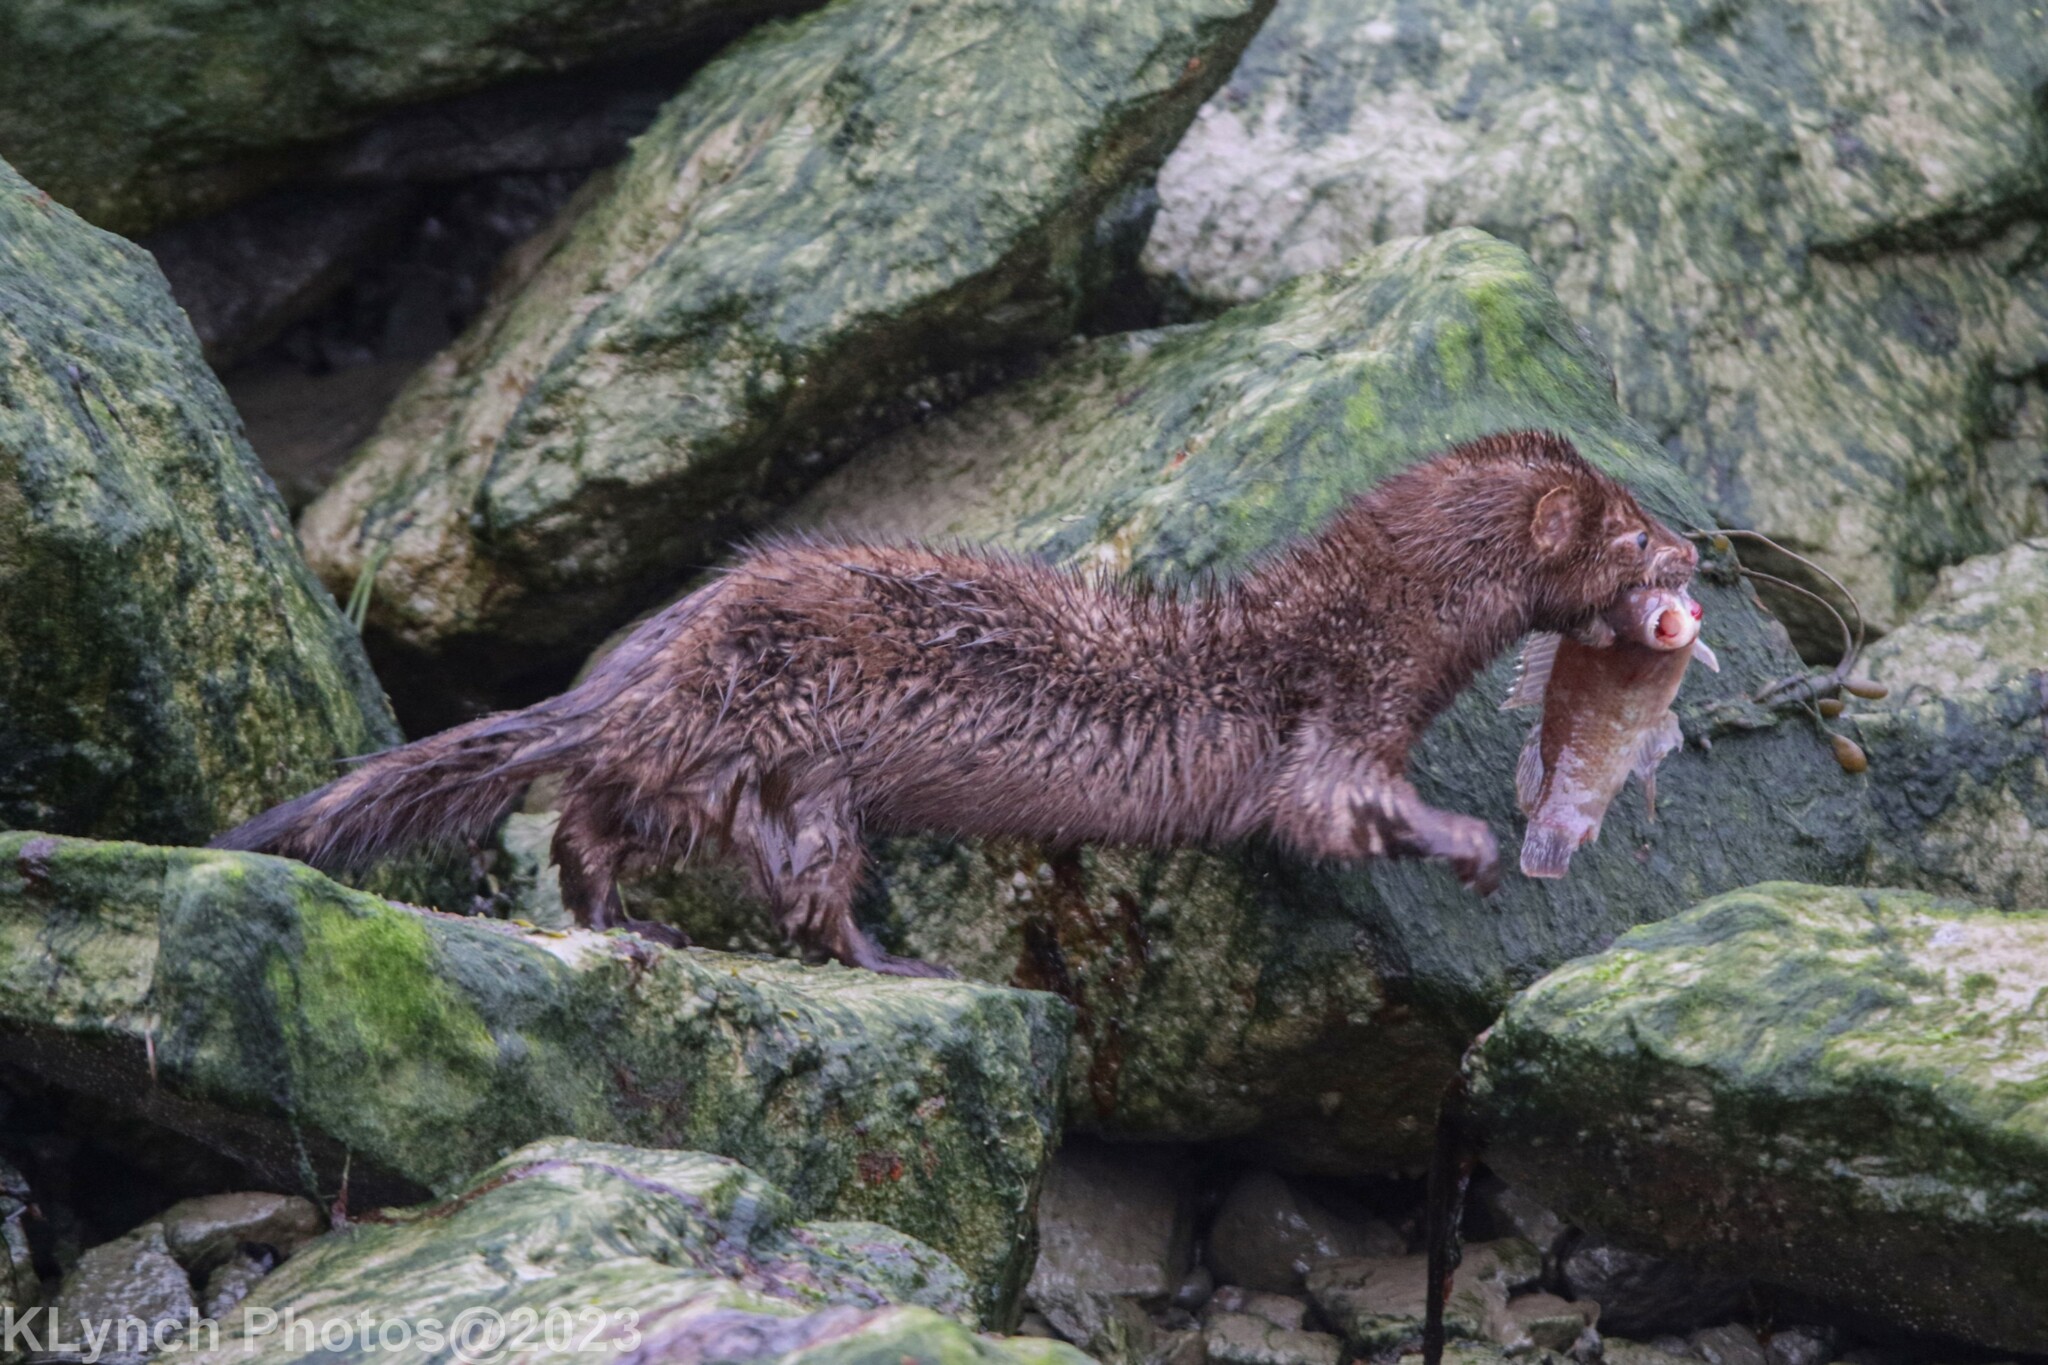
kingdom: Animalia
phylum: Chordata
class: Mammalia
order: Carnivora
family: Mustelidae
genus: Mustela
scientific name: Mustela
